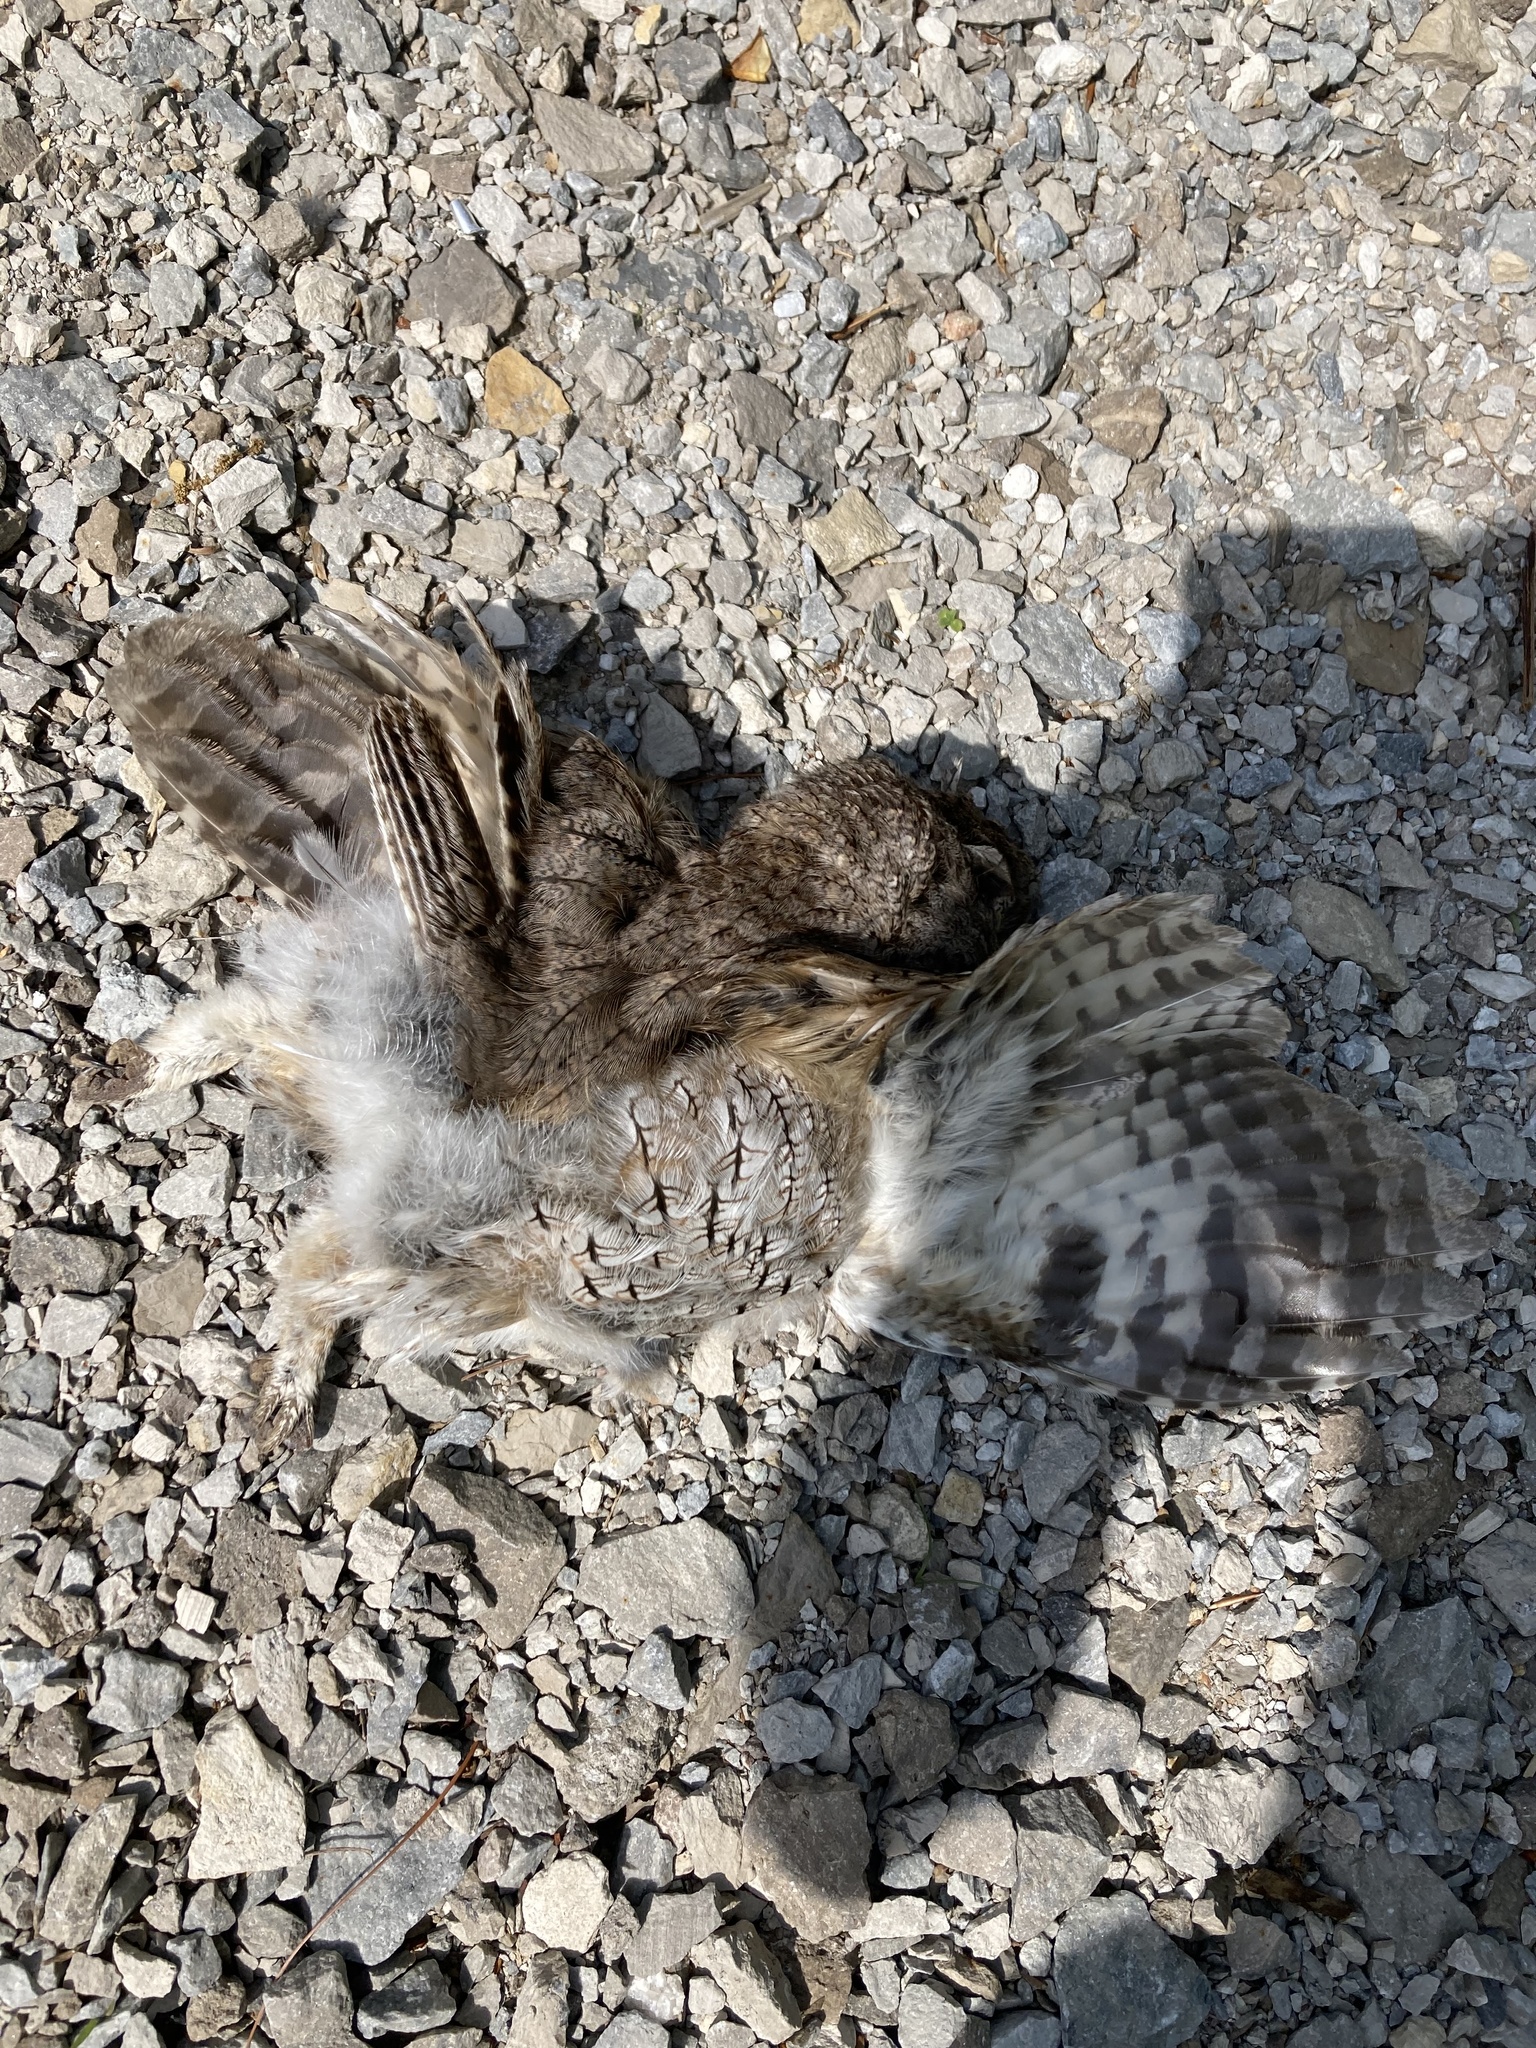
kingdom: Animalia
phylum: Chordata
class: Aves
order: Strigiformes
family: Strigidae
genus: Megascops
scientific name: Megascops asio
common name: Eastern screech-owl
